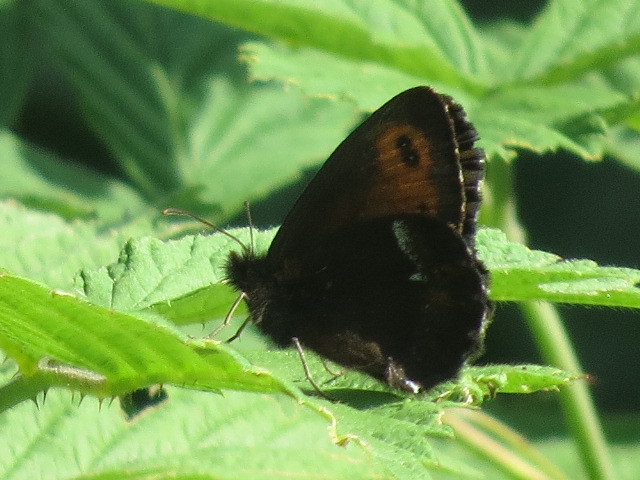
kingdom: Animalia
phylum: Arthropoda
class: Insecta
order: Lepidoptera
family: Nymphalidae
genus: Erebia
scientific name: Erebia euryale
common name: Large ringlet
